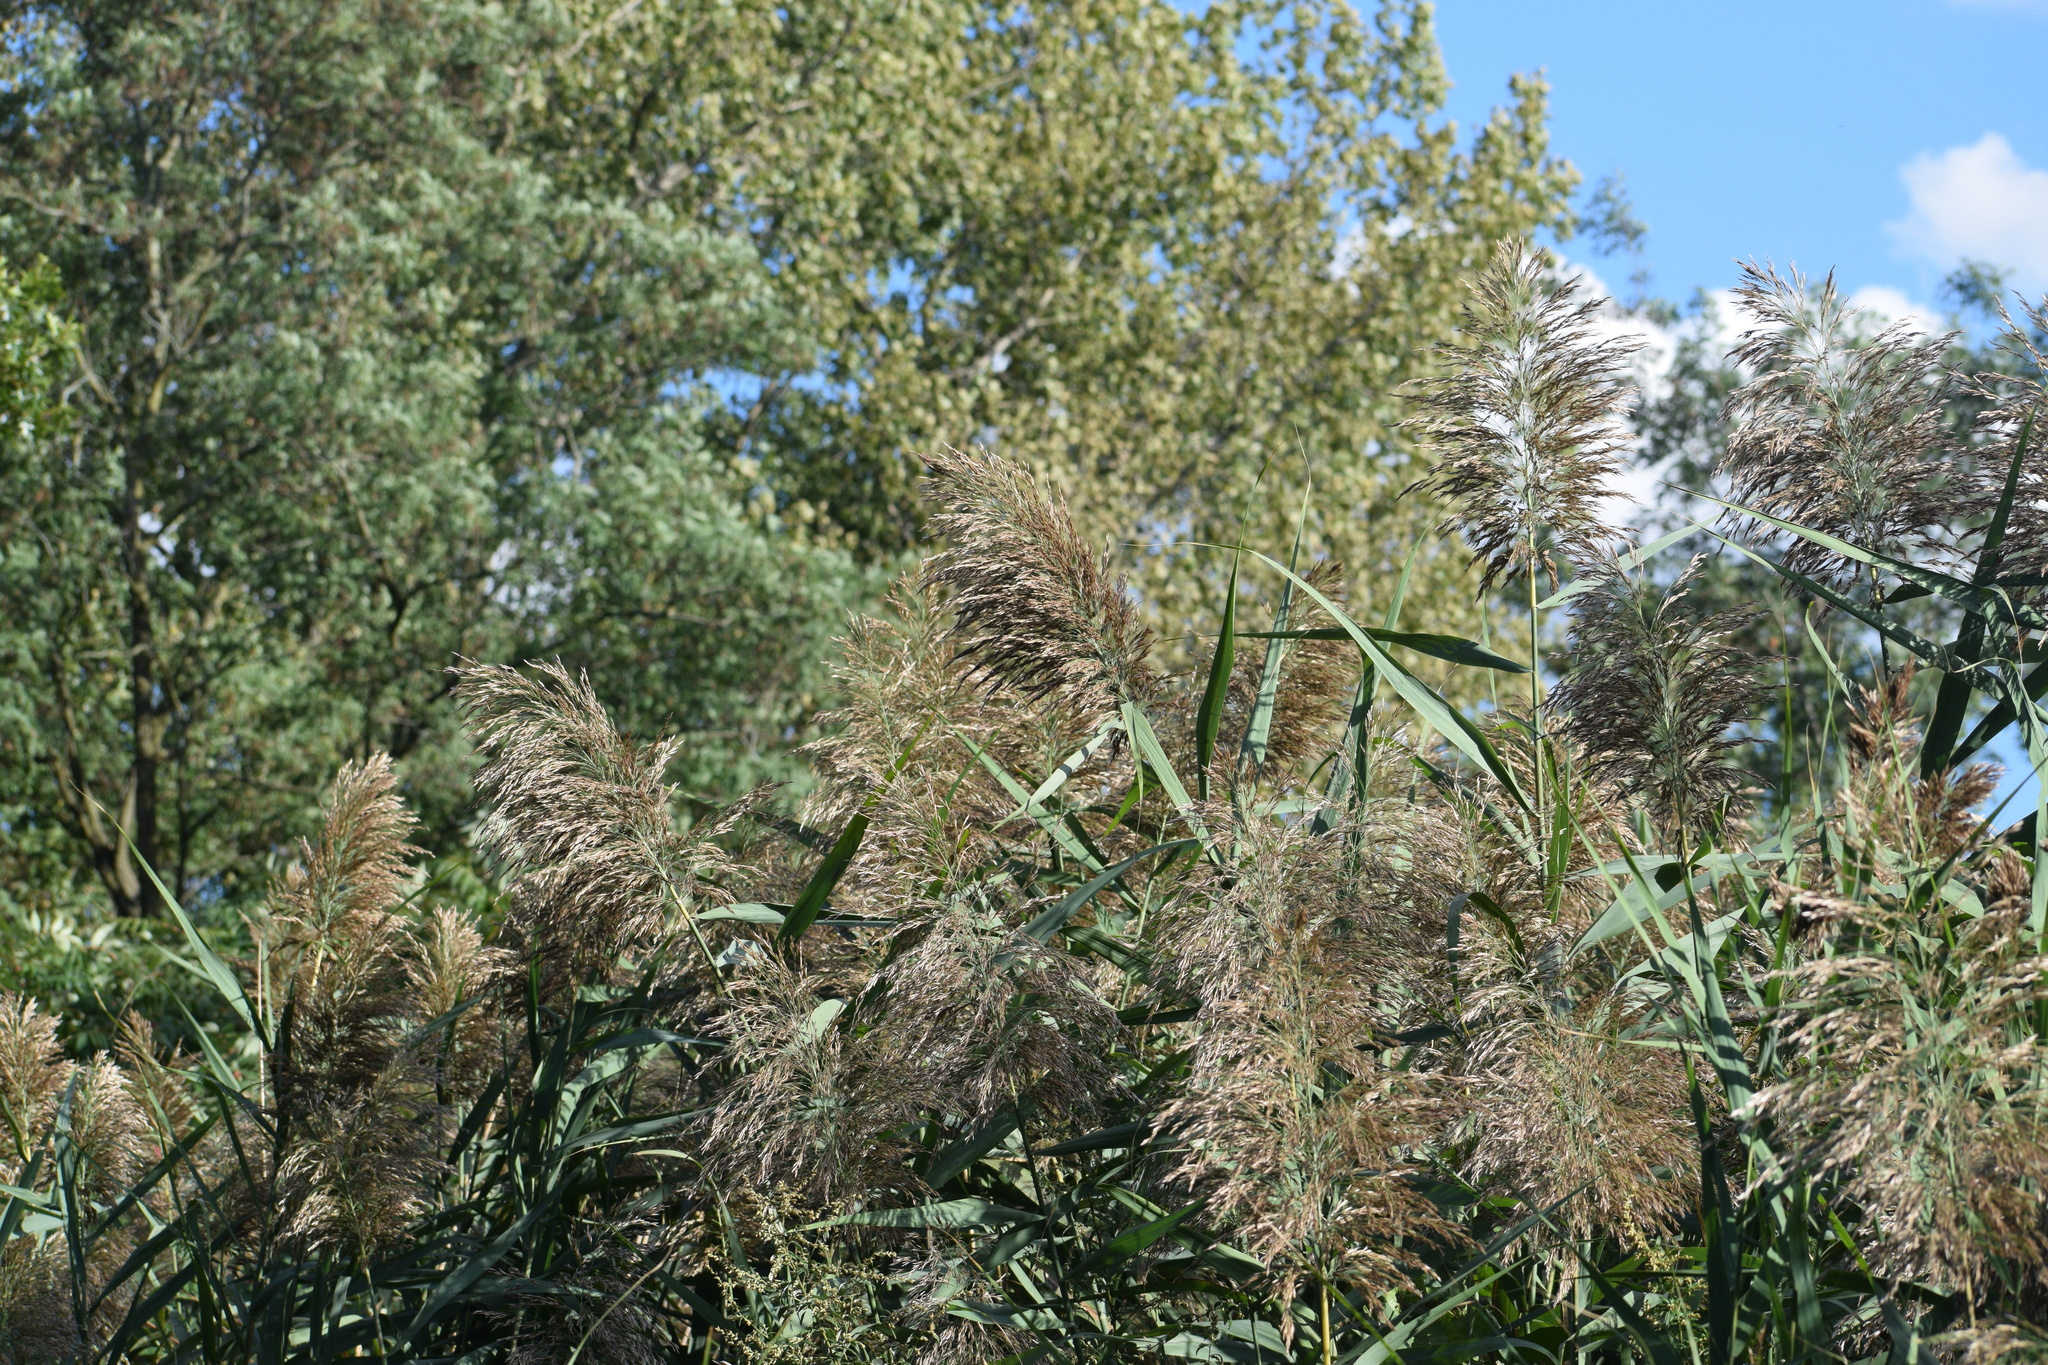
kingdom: Plantae
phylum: Tracheophyta
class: Liliopsida
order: Poales
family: Poaceae
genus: Phragmites
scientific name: Phragmites australis
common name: Common reed
